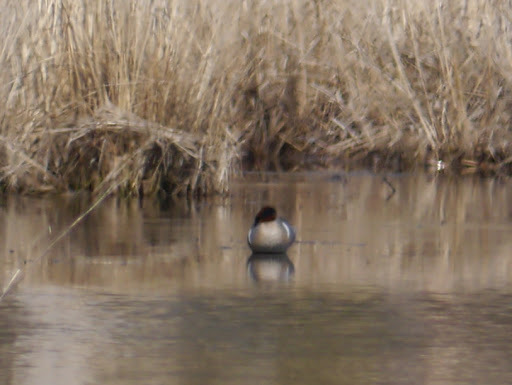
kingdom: Animalia
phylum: Chordata
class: Aves
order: Anseriformes
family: Anatidae
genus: Anas
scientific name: Anas crecca
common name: Eurasian teal
